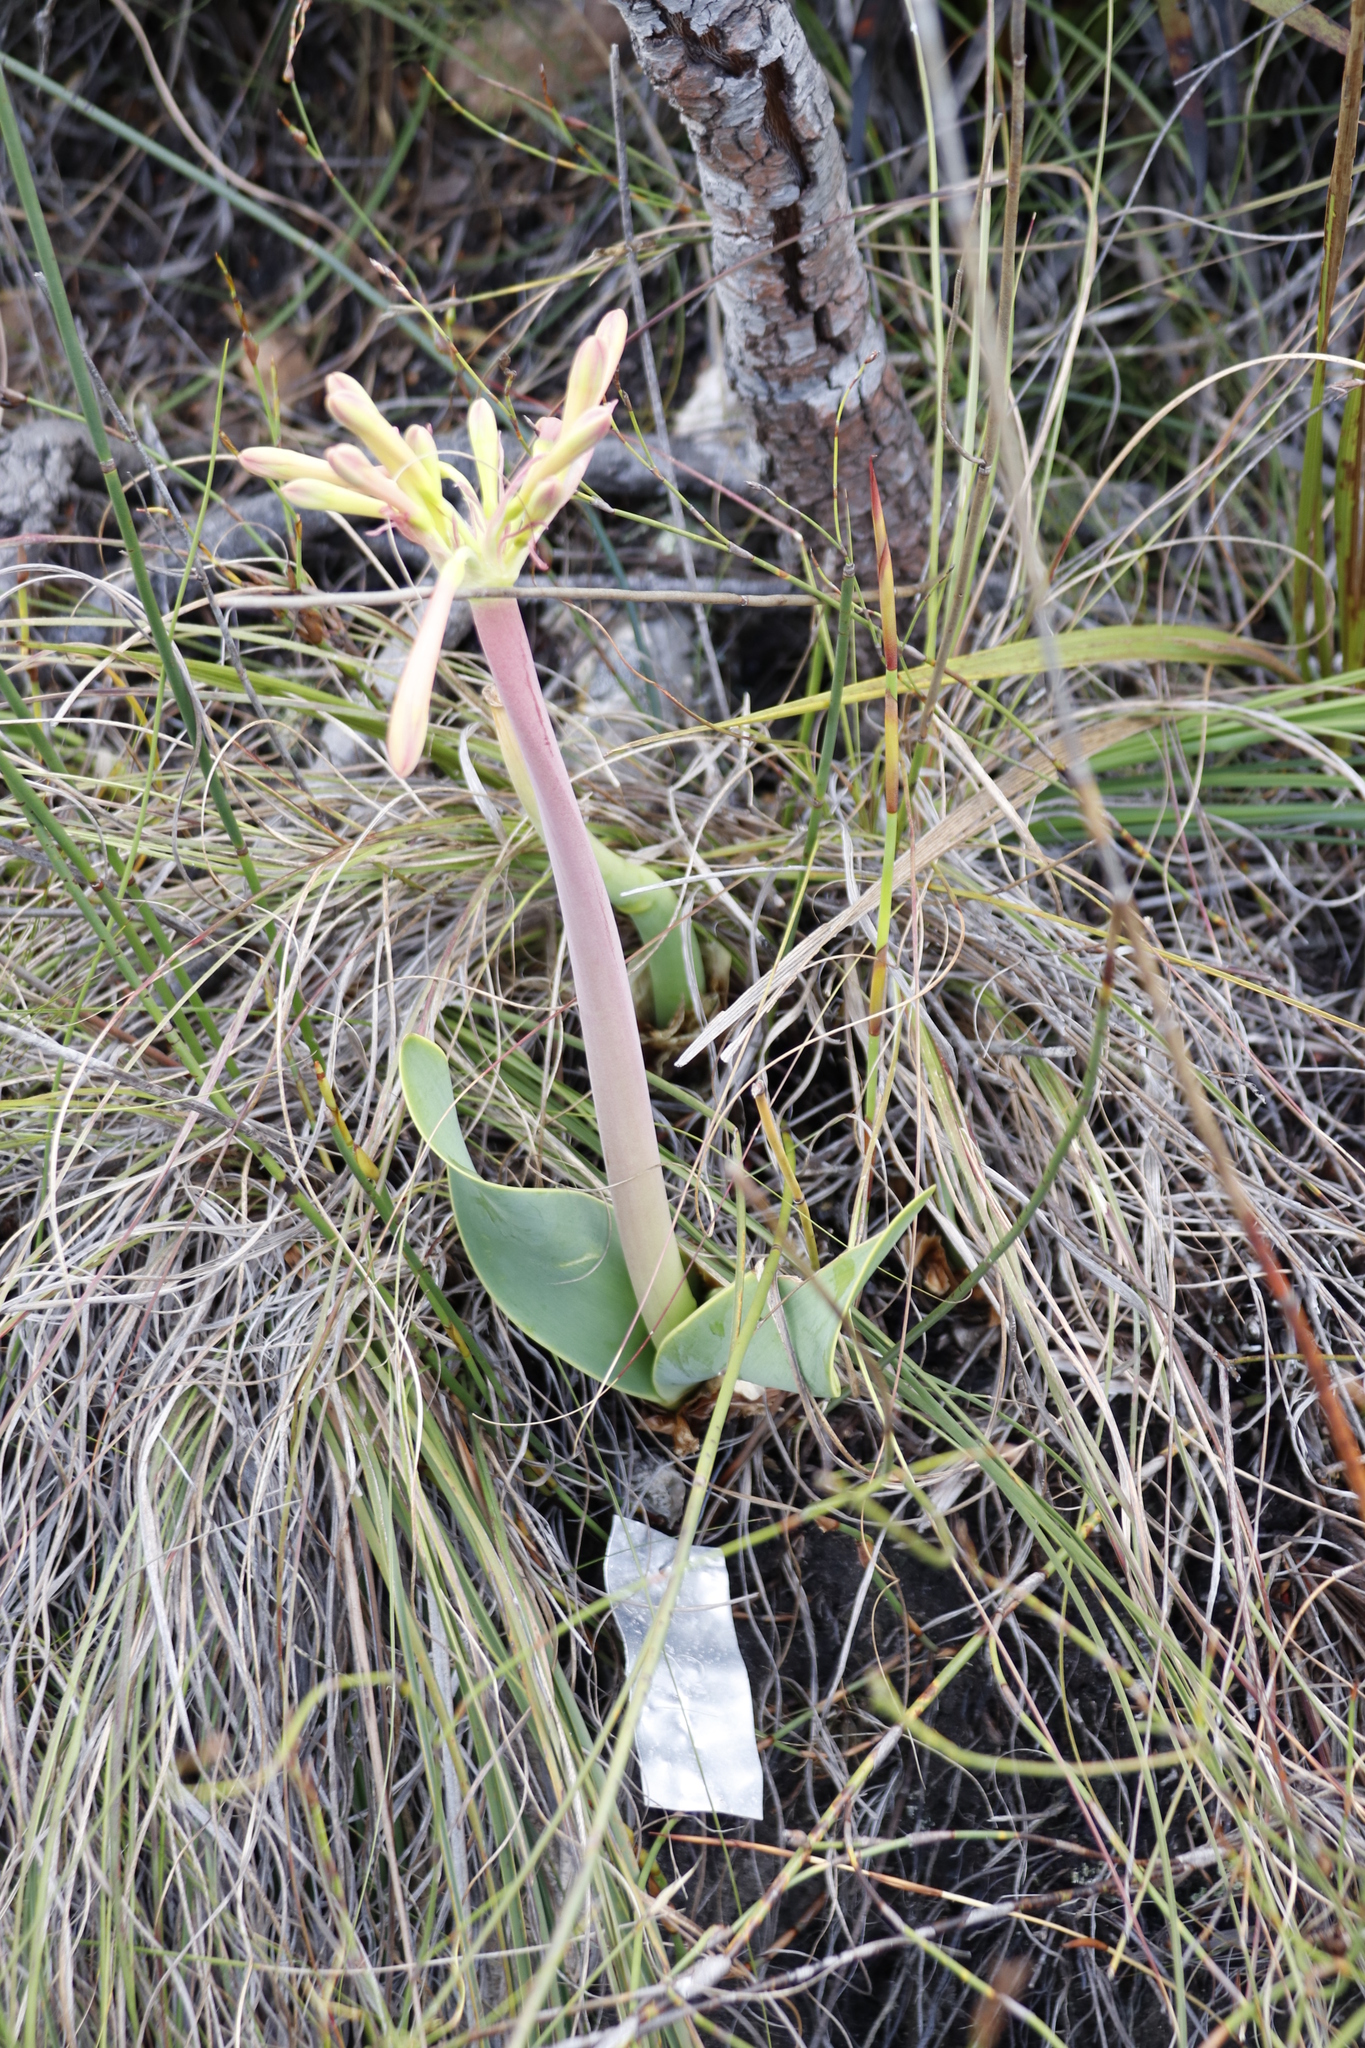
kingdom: Plantae
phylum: Tracheophyta
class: Liliopsida
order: Asparagales
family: Amaryllidaceae
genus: Cyrtanthus
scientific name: Cyrtanthus carneus
